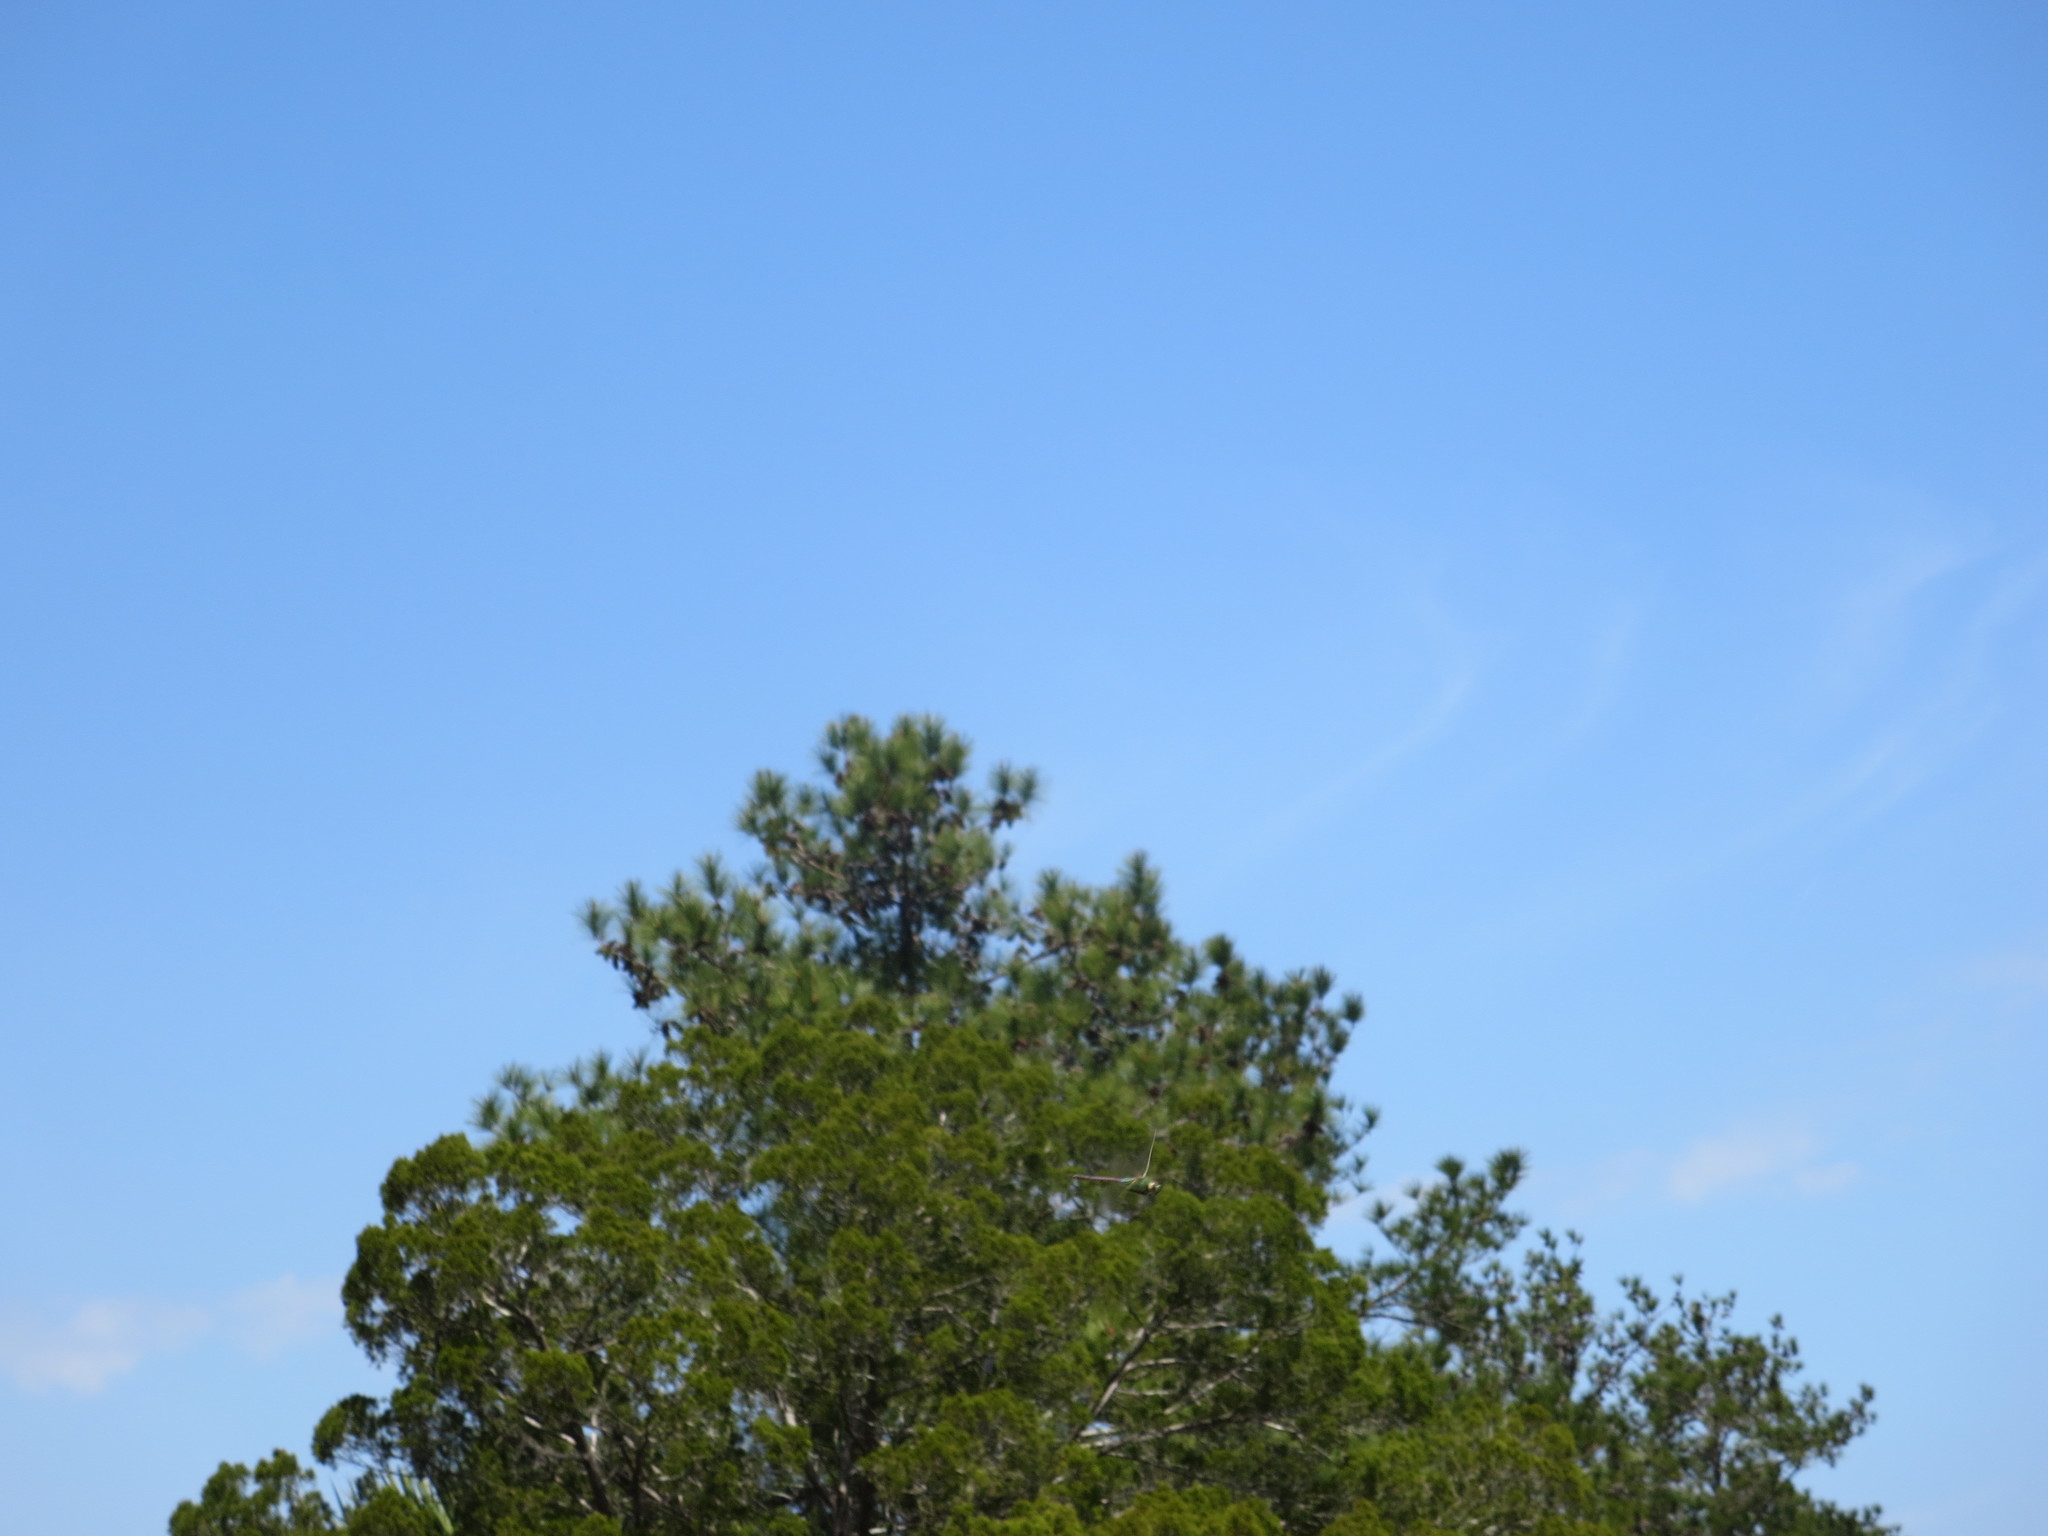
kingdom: Animalia
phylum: Arthropoda
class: Insecta
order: Odonata
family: Aeshnidae
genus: Anax
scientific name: Anax junius
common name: Common green darner
